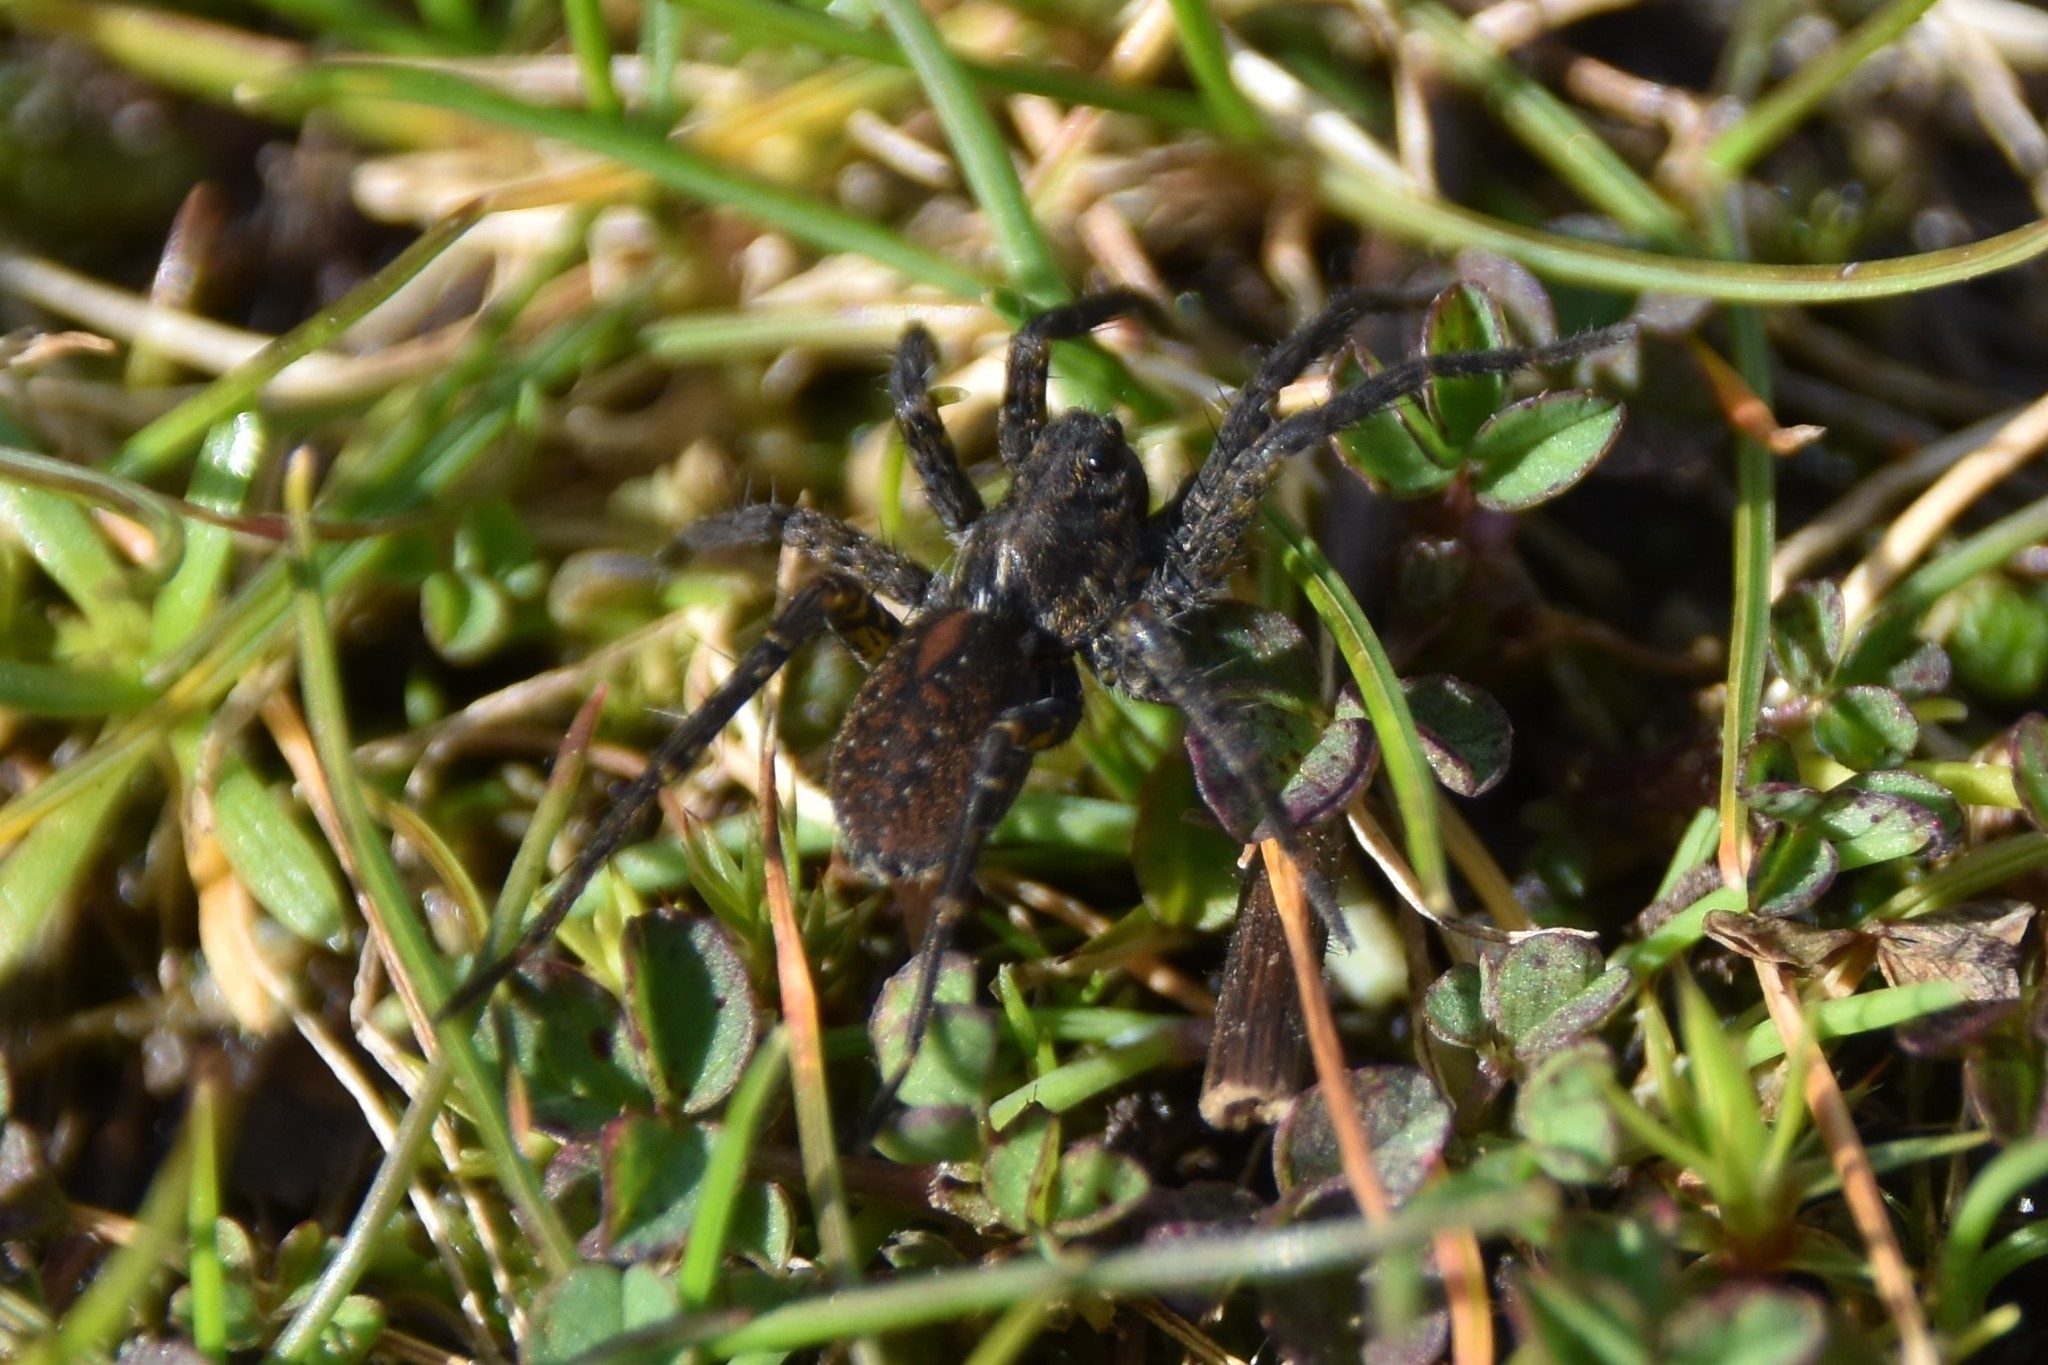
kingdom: Animalia
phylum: Arthropoda
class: Arachnida
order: Araneae
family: Lycosidae
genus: Pardosa
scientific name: Pardosa vancouveri
